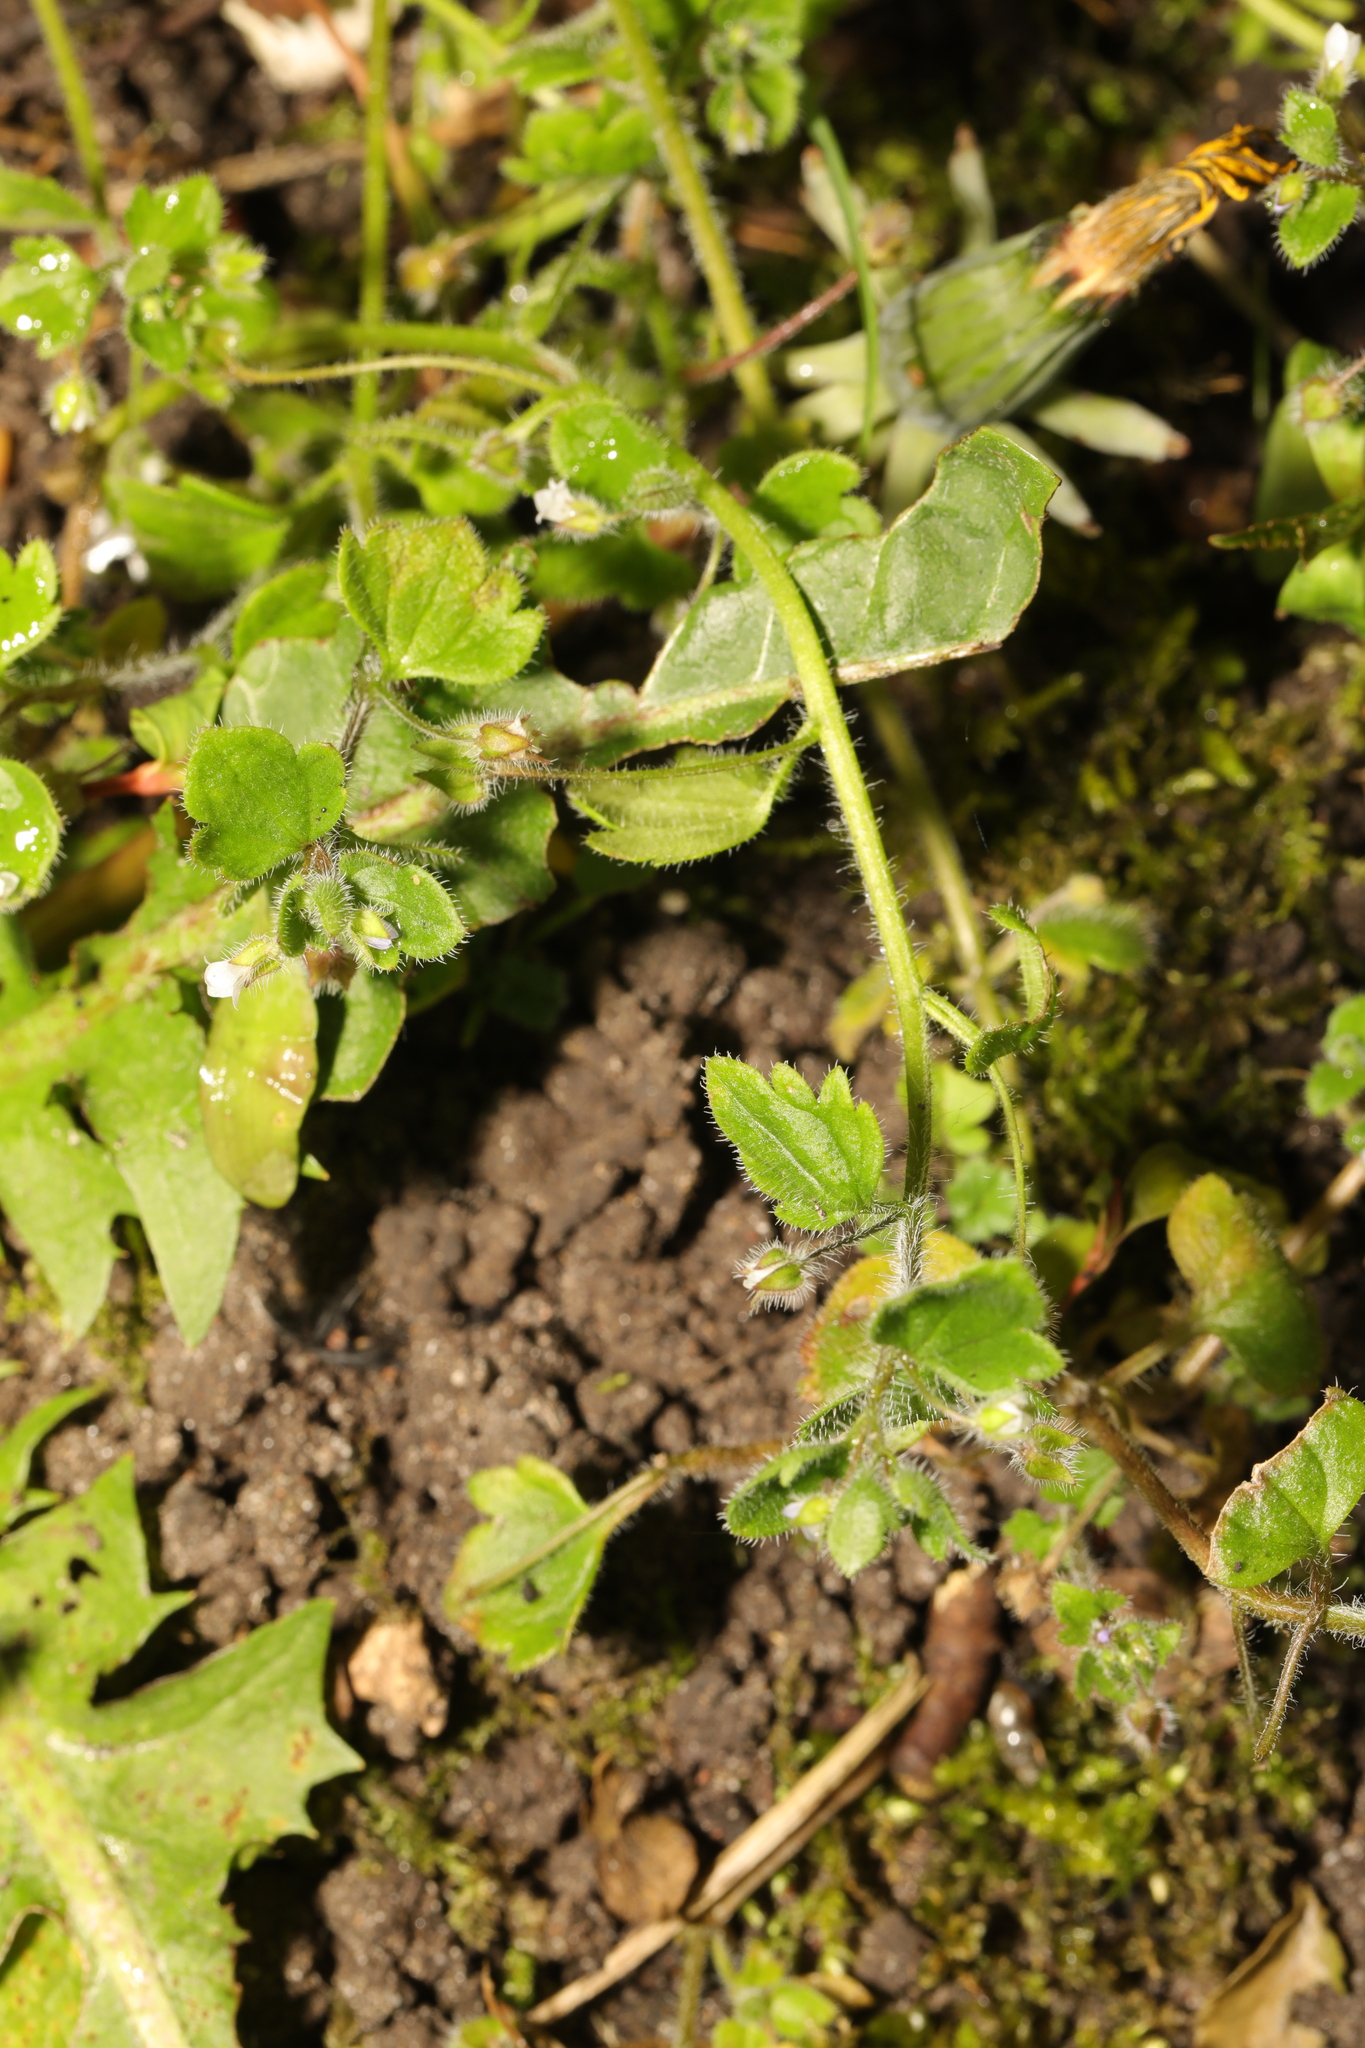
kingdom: Plantae
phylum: Tracheophyta
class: Magnoliopsida
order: Lamiales
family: Plantaginaceae
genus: Veronica
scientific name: Veronica sublobata
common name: False ivy-leaved speedwell
